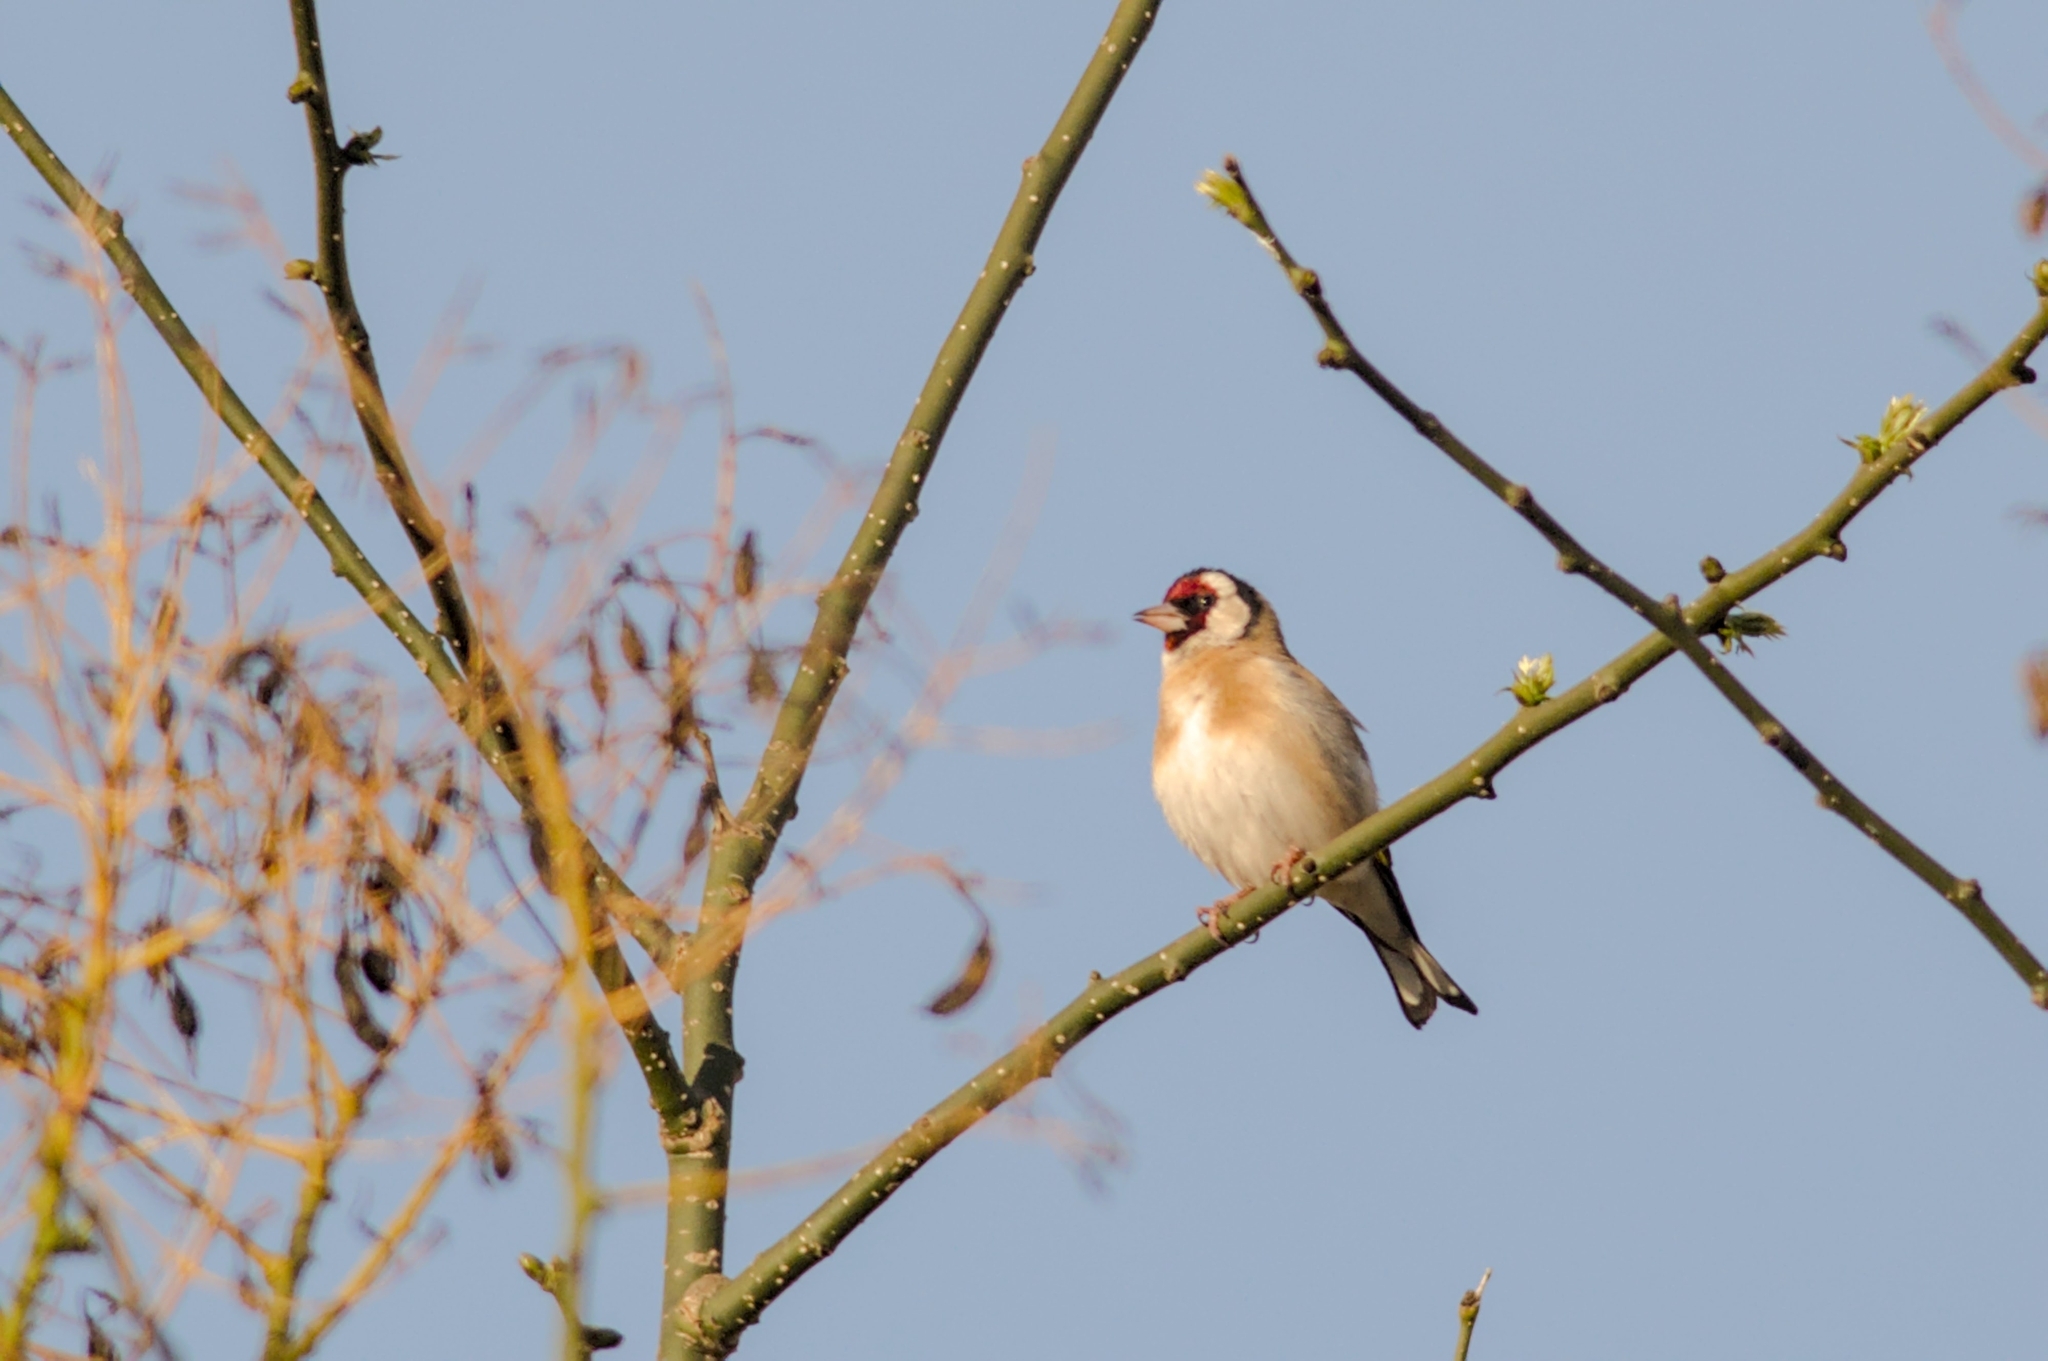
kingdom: Animalia
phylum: Chordata
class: Aves
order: Passeriformes
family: Fringillidae
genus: Carduelis
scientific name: Carduelis carduelis
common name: European goldfinch
